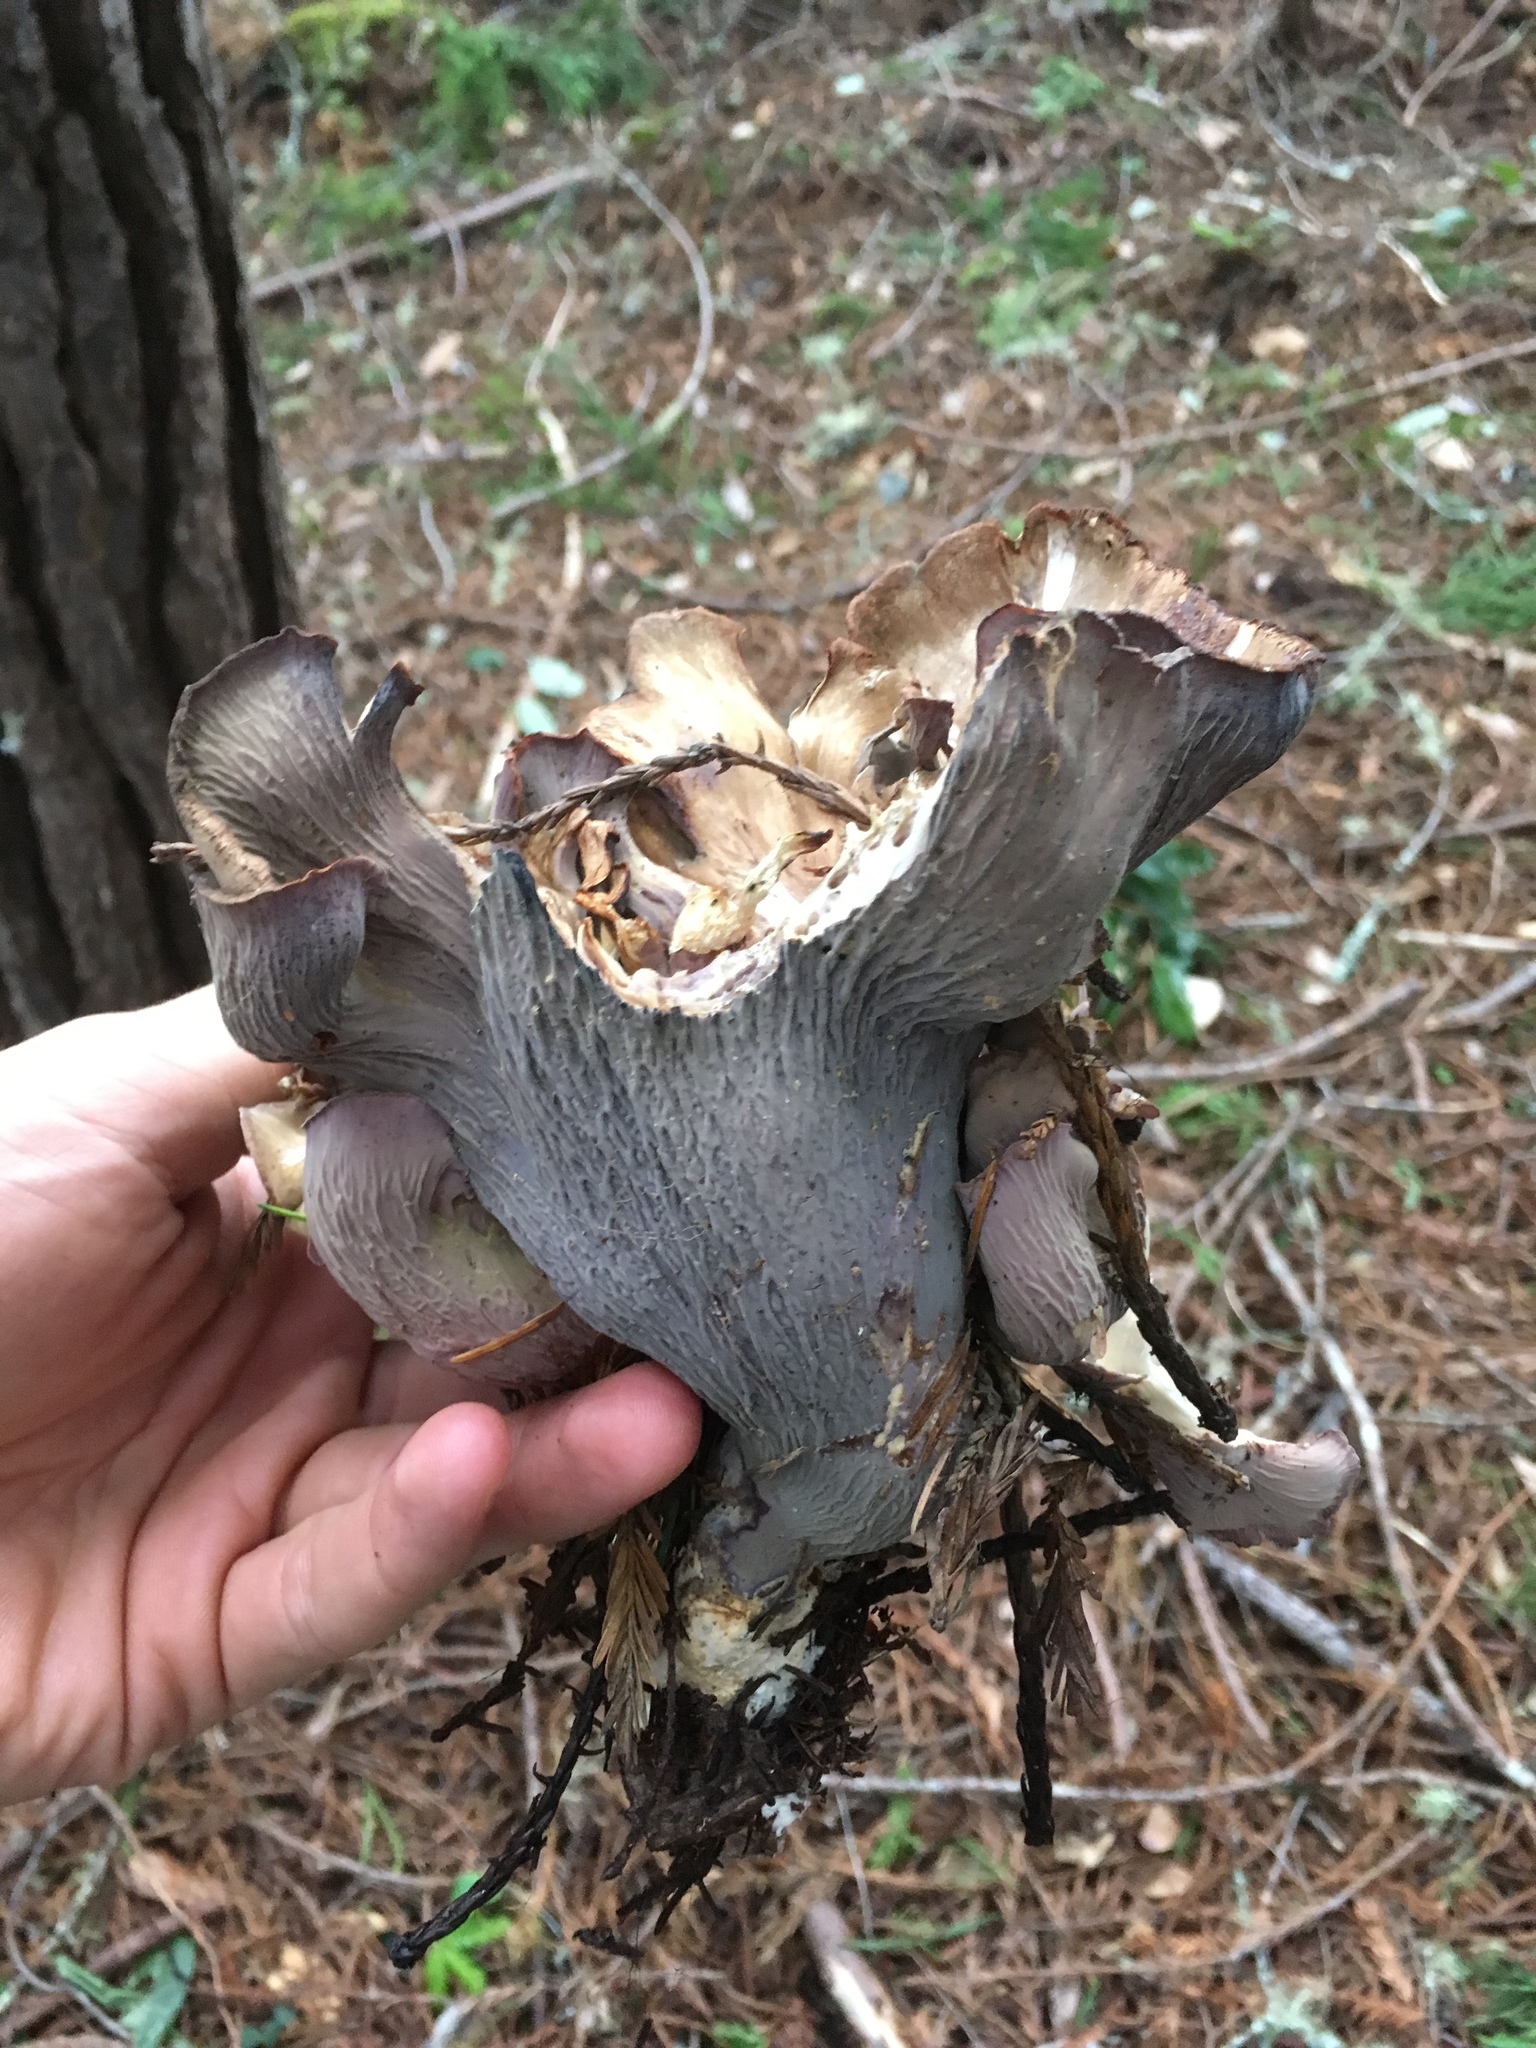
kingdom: Fungi
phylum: Basidiomycota
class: Agaricomycetes
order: Gomphales
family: Gomphaceae
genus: Gomphus
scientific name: Gomphus clavatus
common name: Pig's ear
